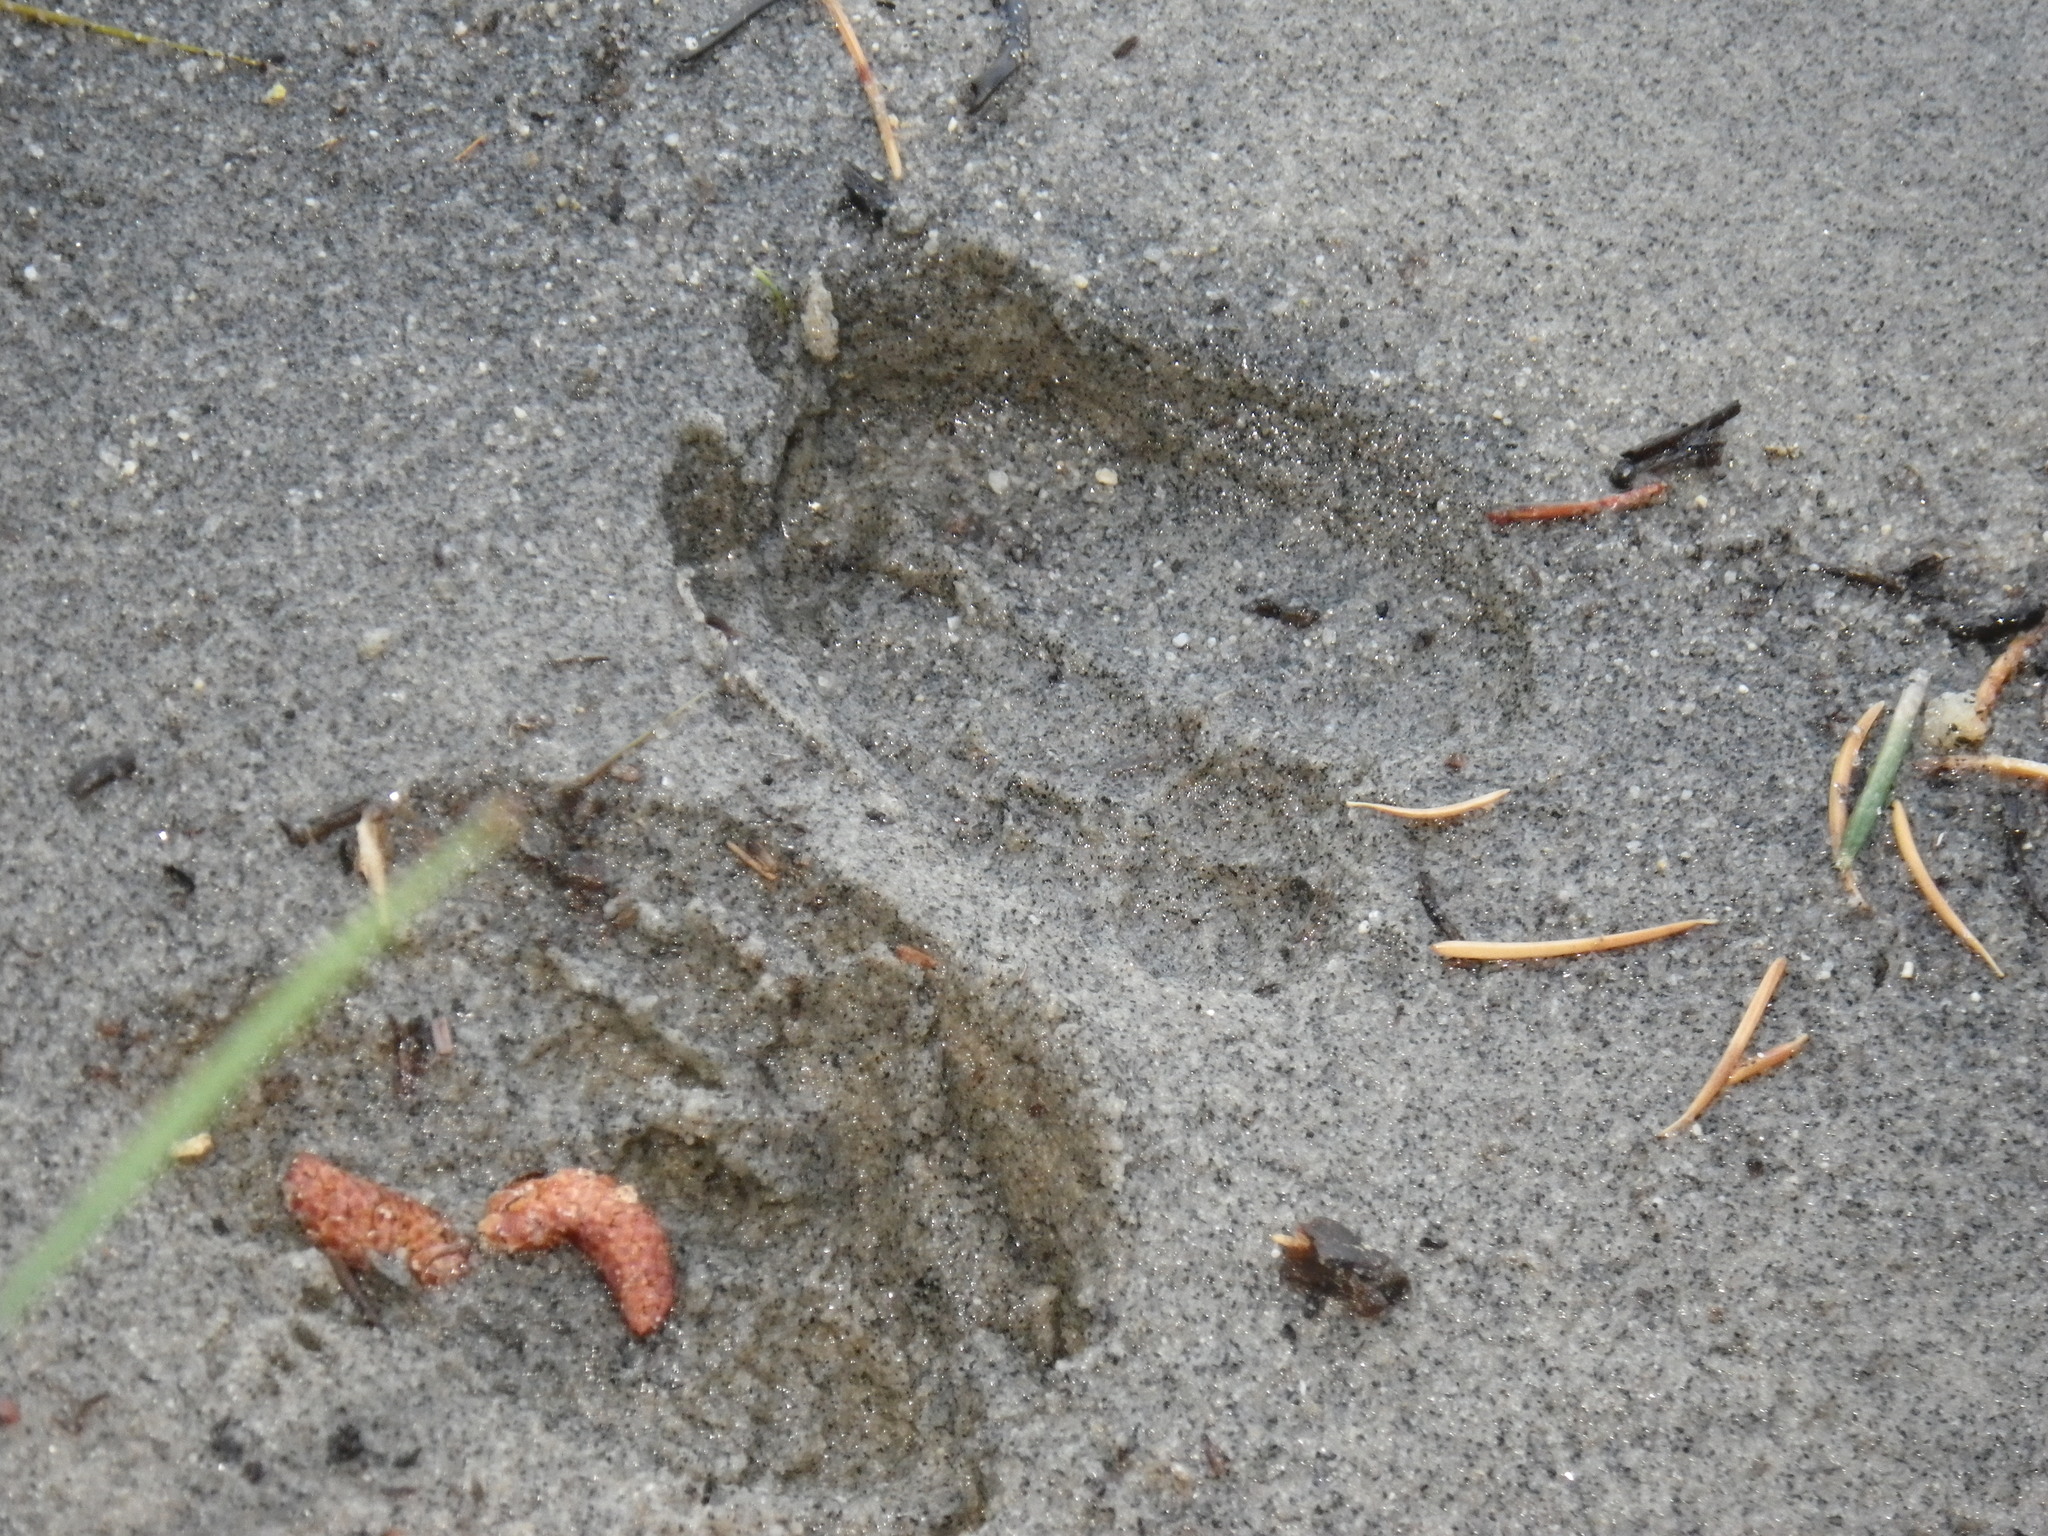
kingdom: Animalia
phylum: Chordata
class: Mammalia
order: Artiodactyla
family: Cervidae
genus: Odocoileus
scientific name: Odocoileus hemionus
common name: Mule deer
